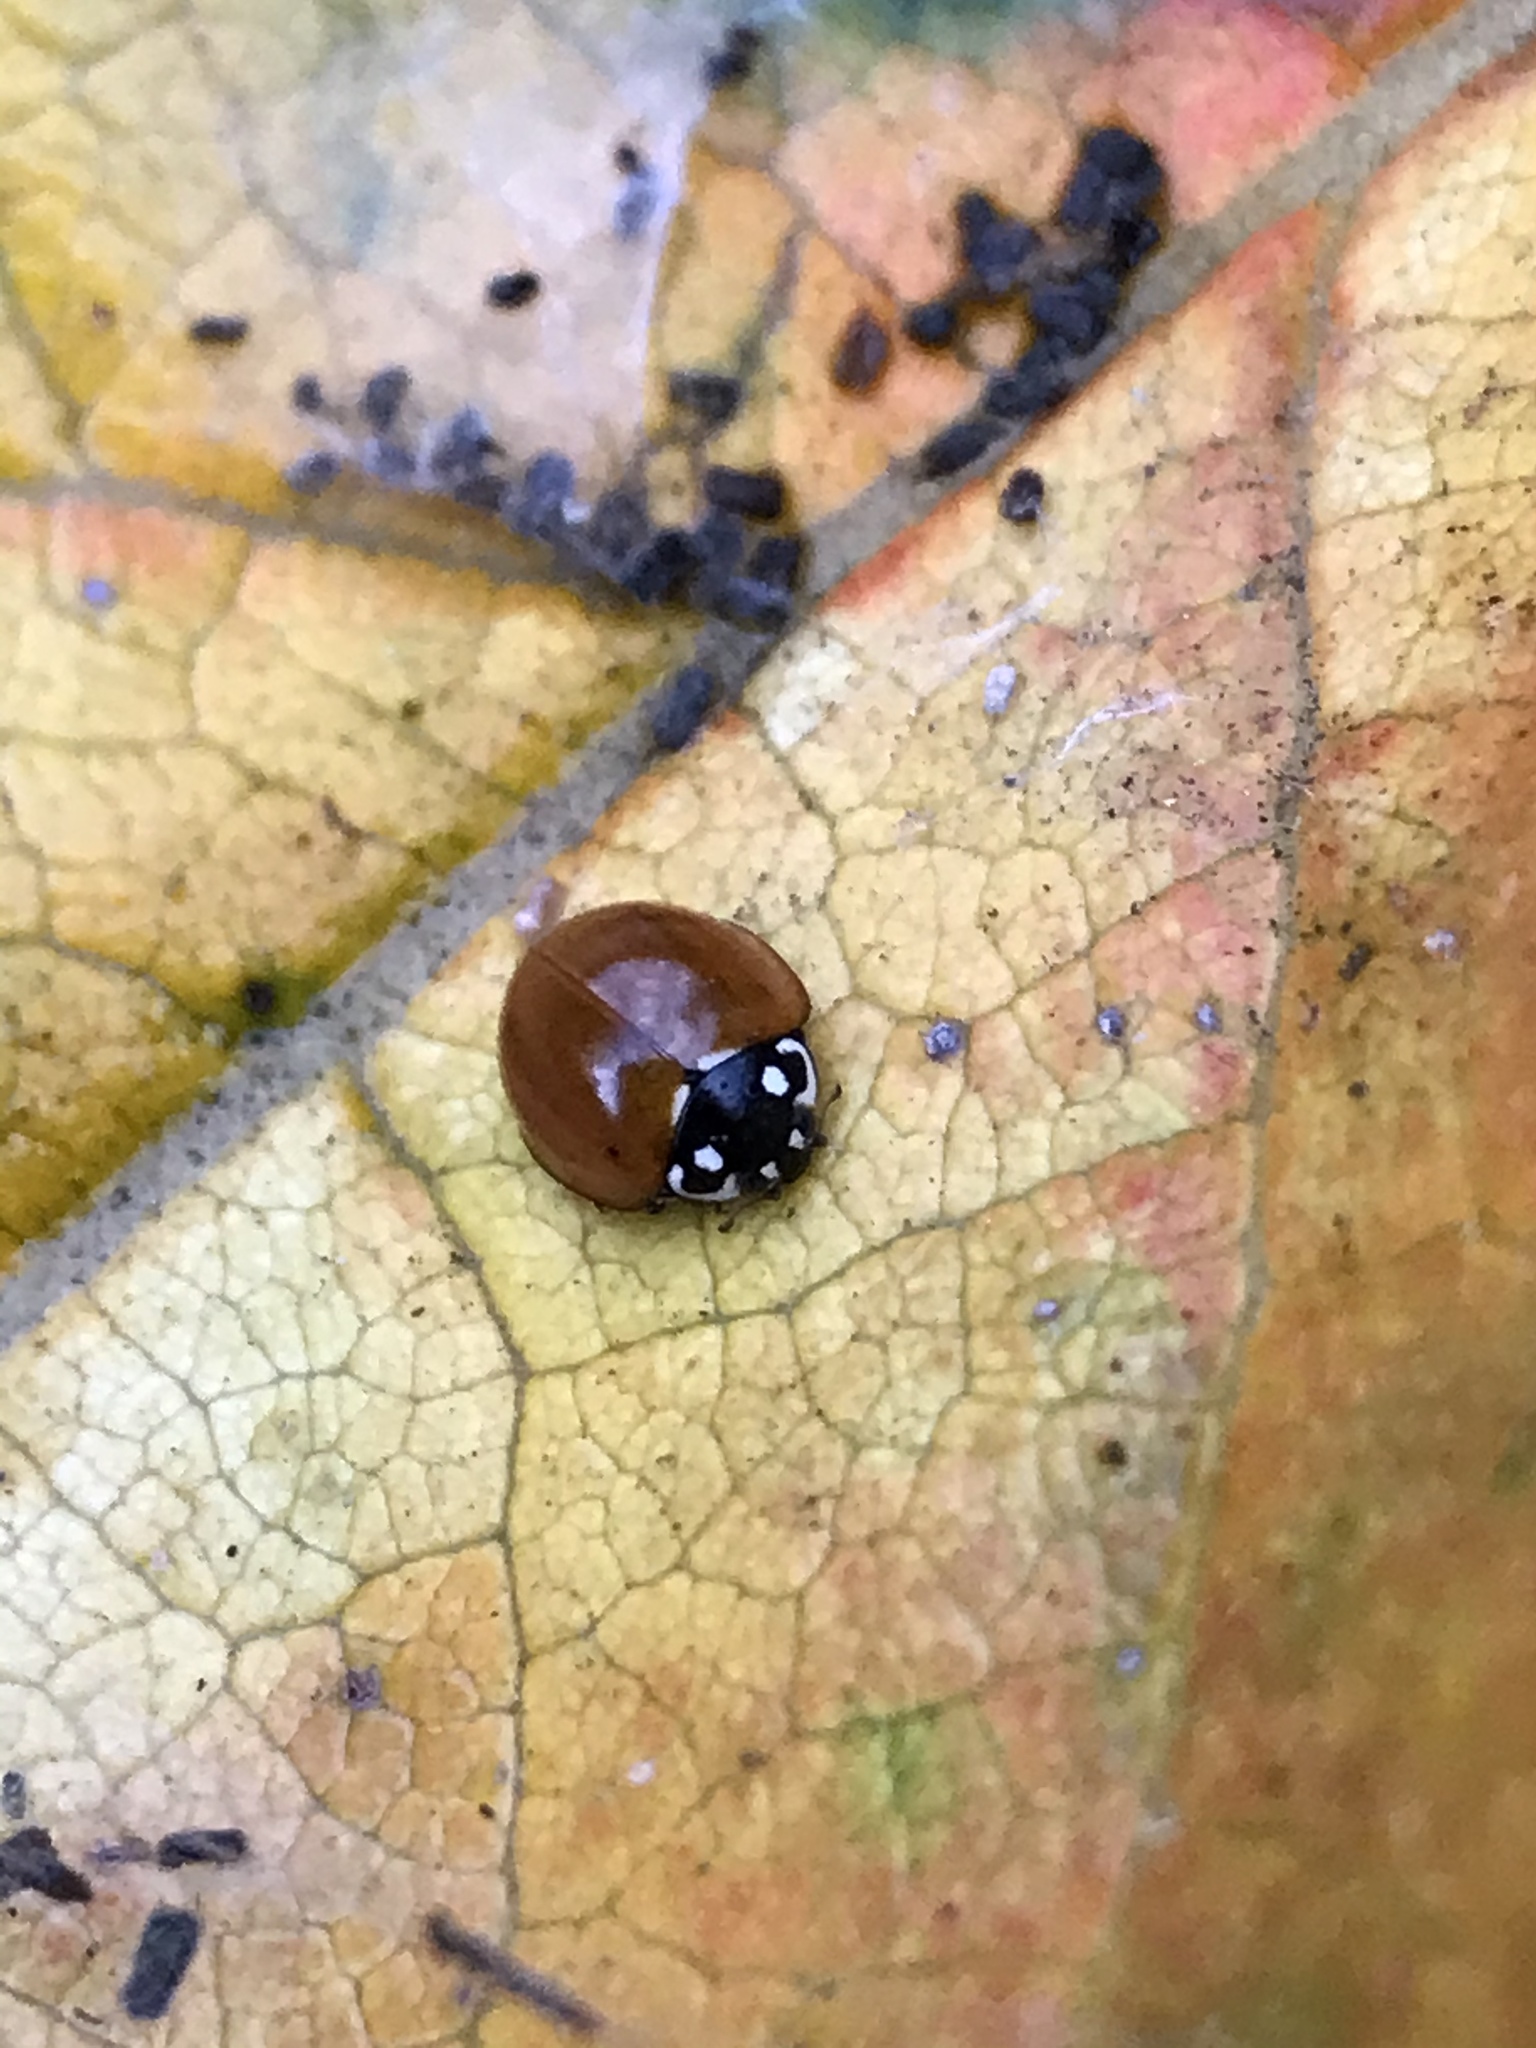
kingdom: Animalia
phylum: Arthropoda
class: Insecta
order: Coleoptera
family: Coccinellidae
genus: Cycloneda
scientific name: Cycloneda sanguinea
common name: Ladybird beetle
